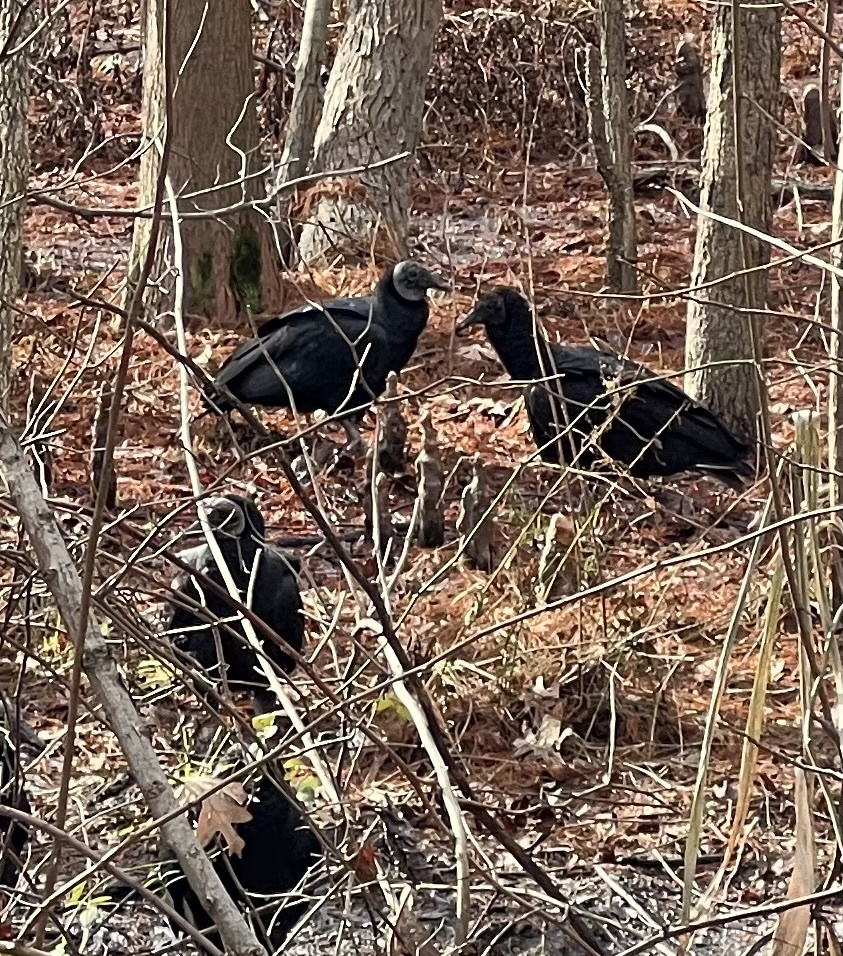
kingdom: Animalia
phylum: Chordata
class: Aves
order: Accipitriformes
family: Cathartidae
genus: Coragyps
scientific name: Coragyps atratus
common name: Black vulture
